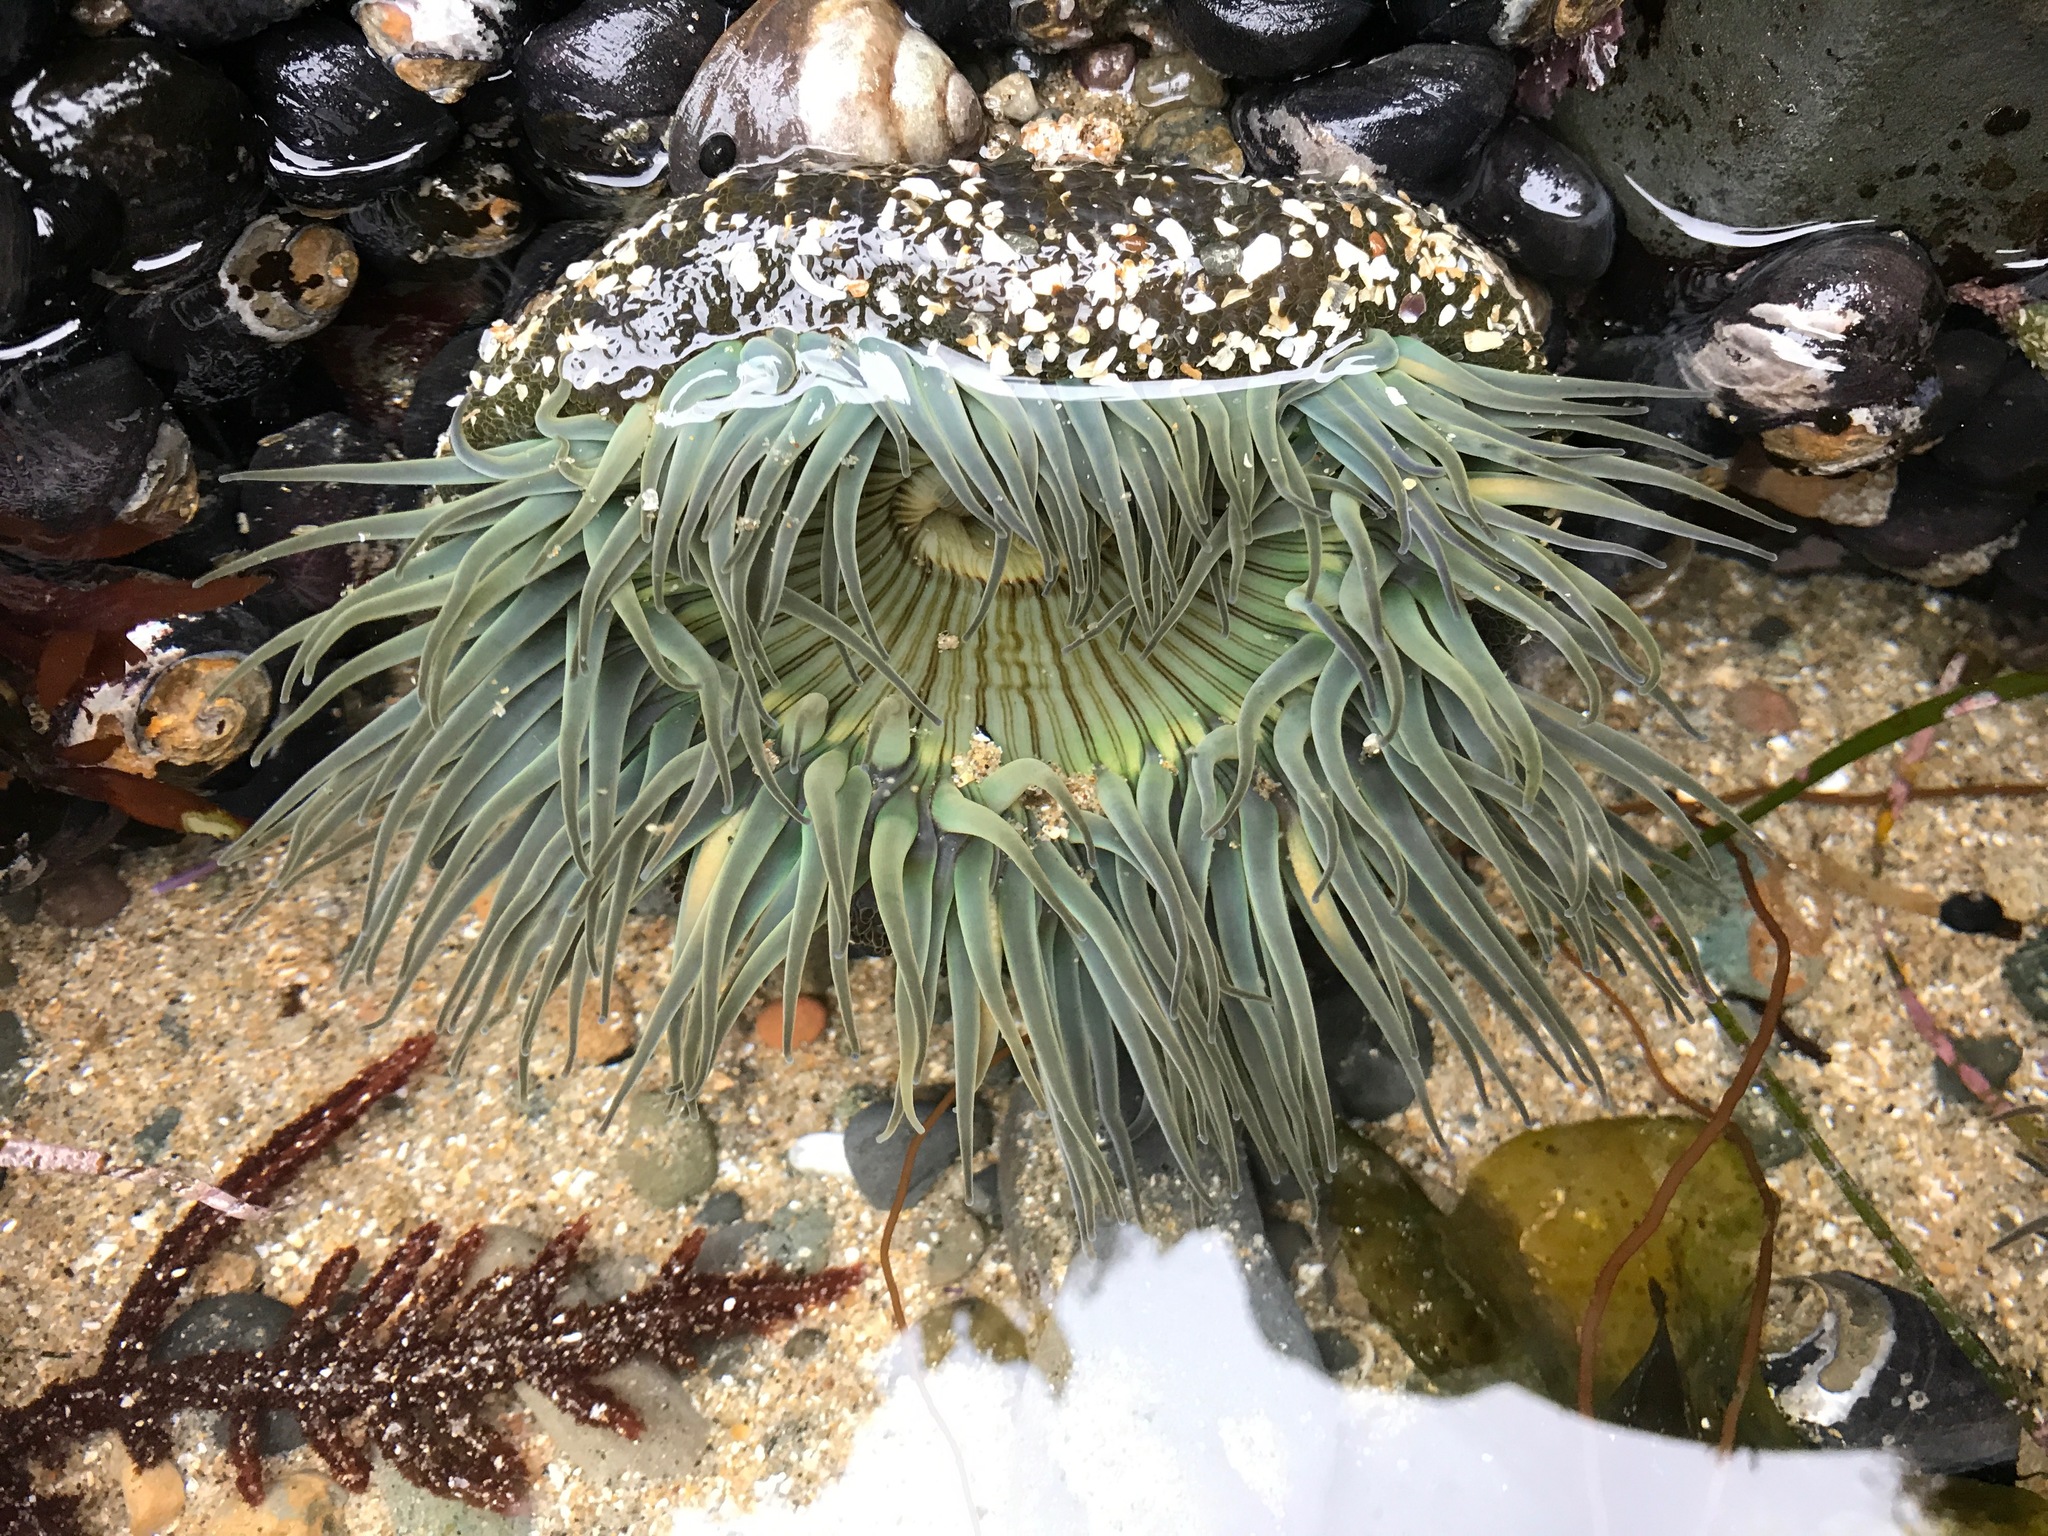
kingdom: Animalia
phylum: Cnidaria
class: Anthozoa
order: Actiniaria
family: Actiniidae
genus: Anthopleura
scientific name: Anthopleura sola
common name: Sun anemone
